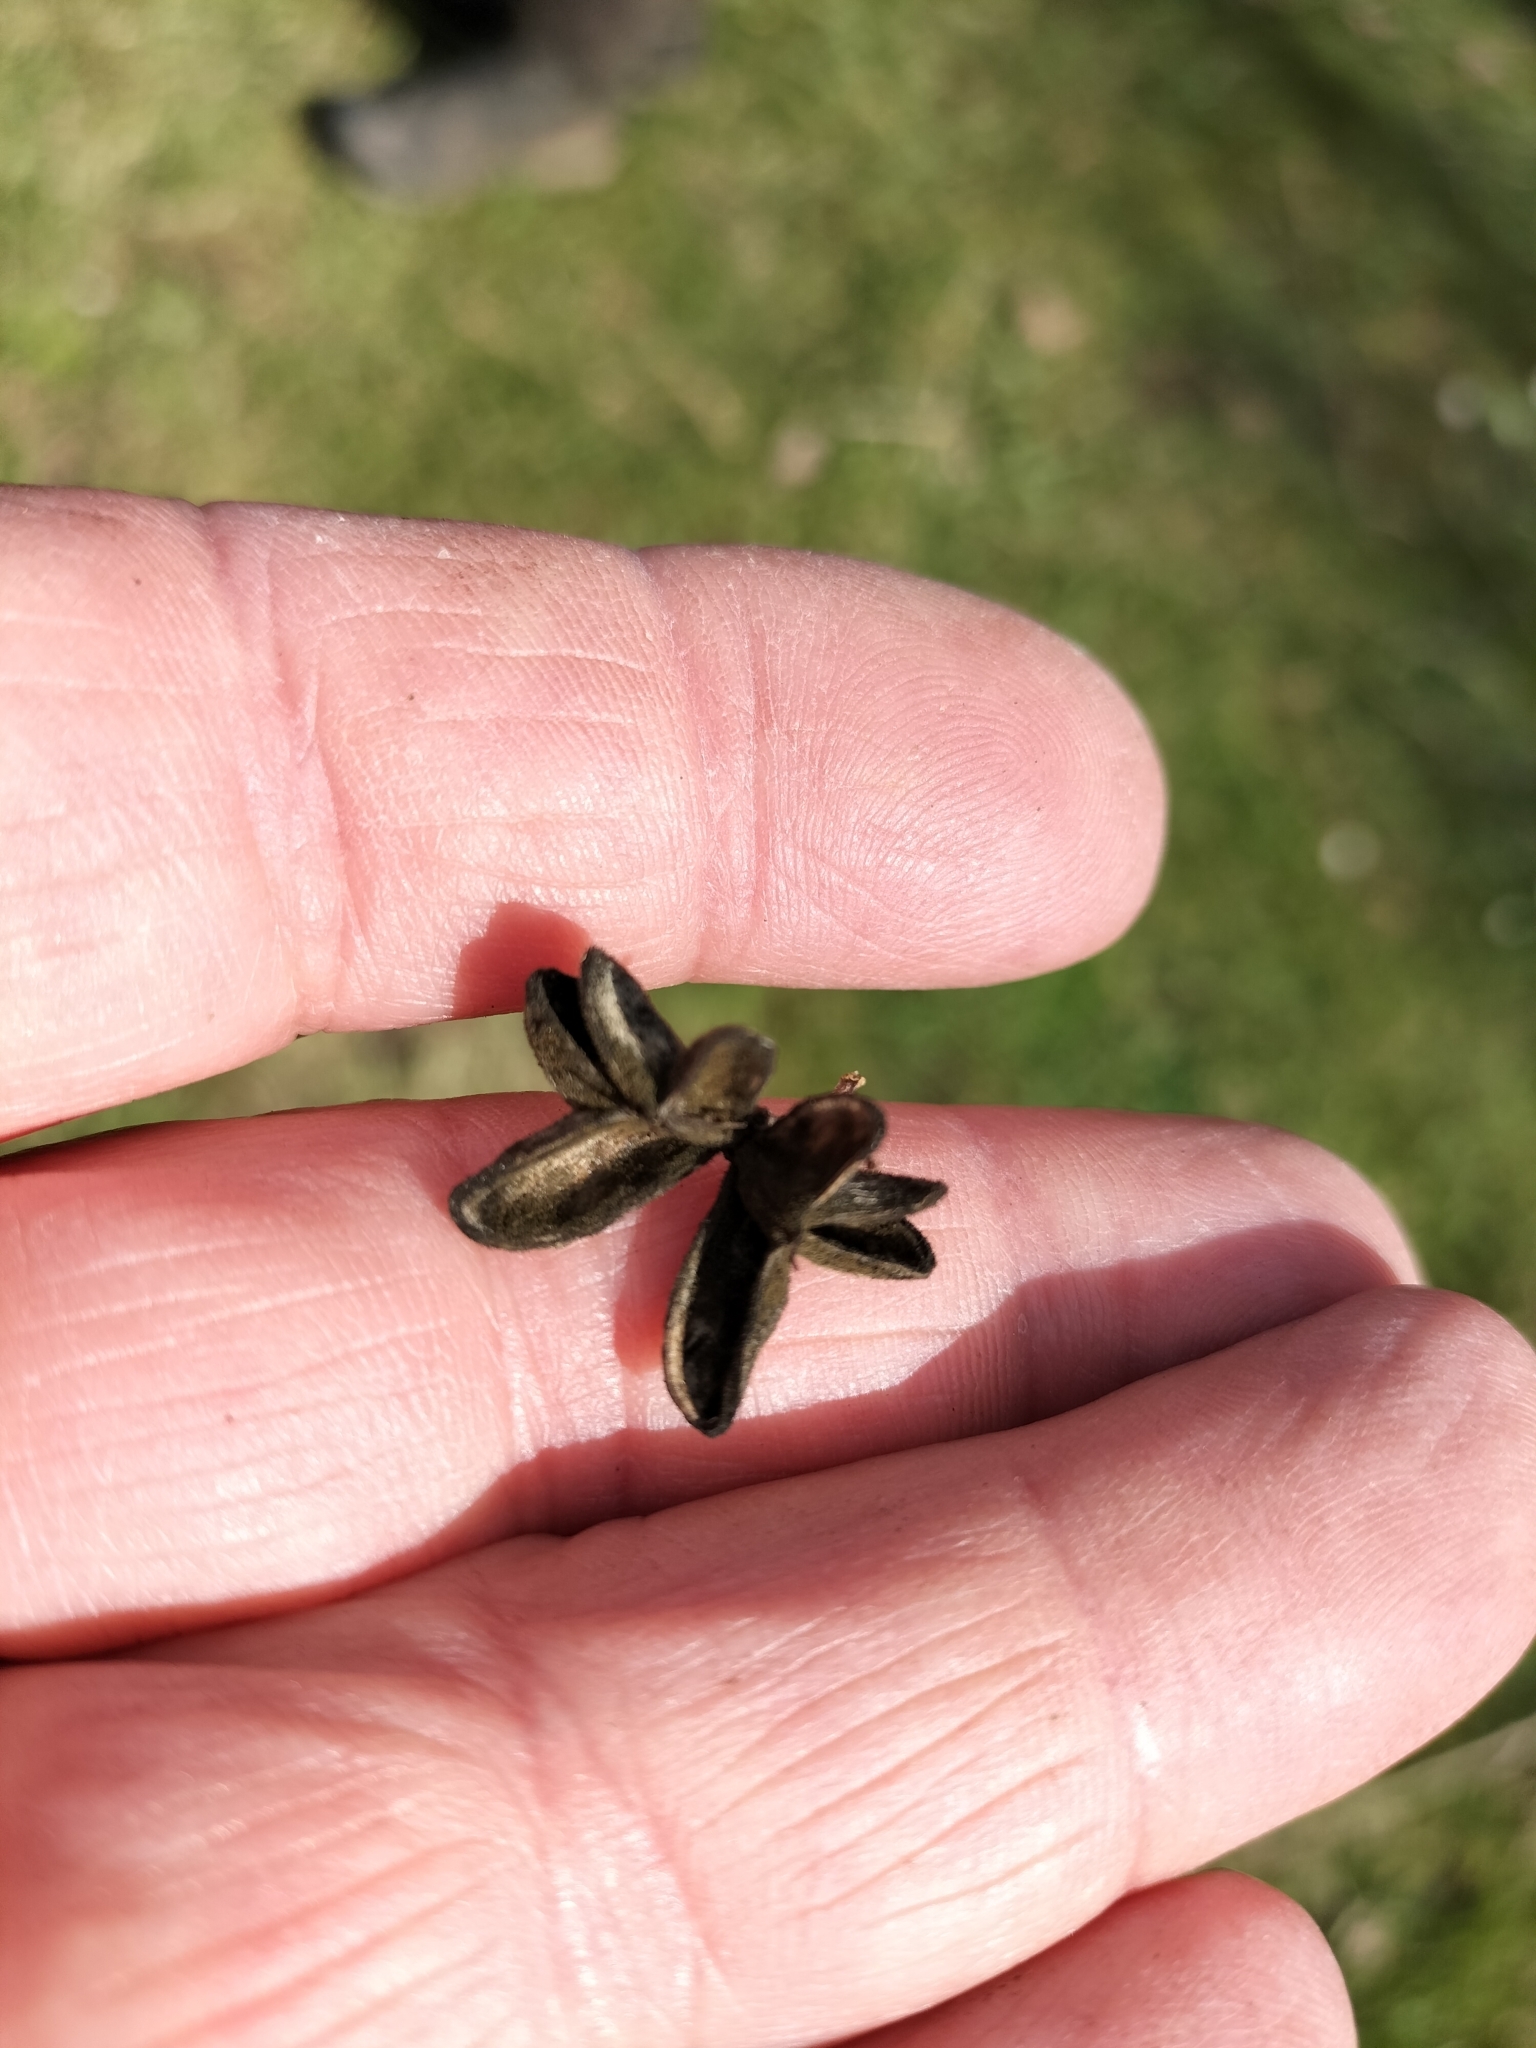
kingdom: Plantae
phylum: Tracheophyta
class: Magnoliopsida
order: Celastrales
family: Celastraceae
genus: Euonymus
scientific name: Euonymus europaeus
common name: Spindle
